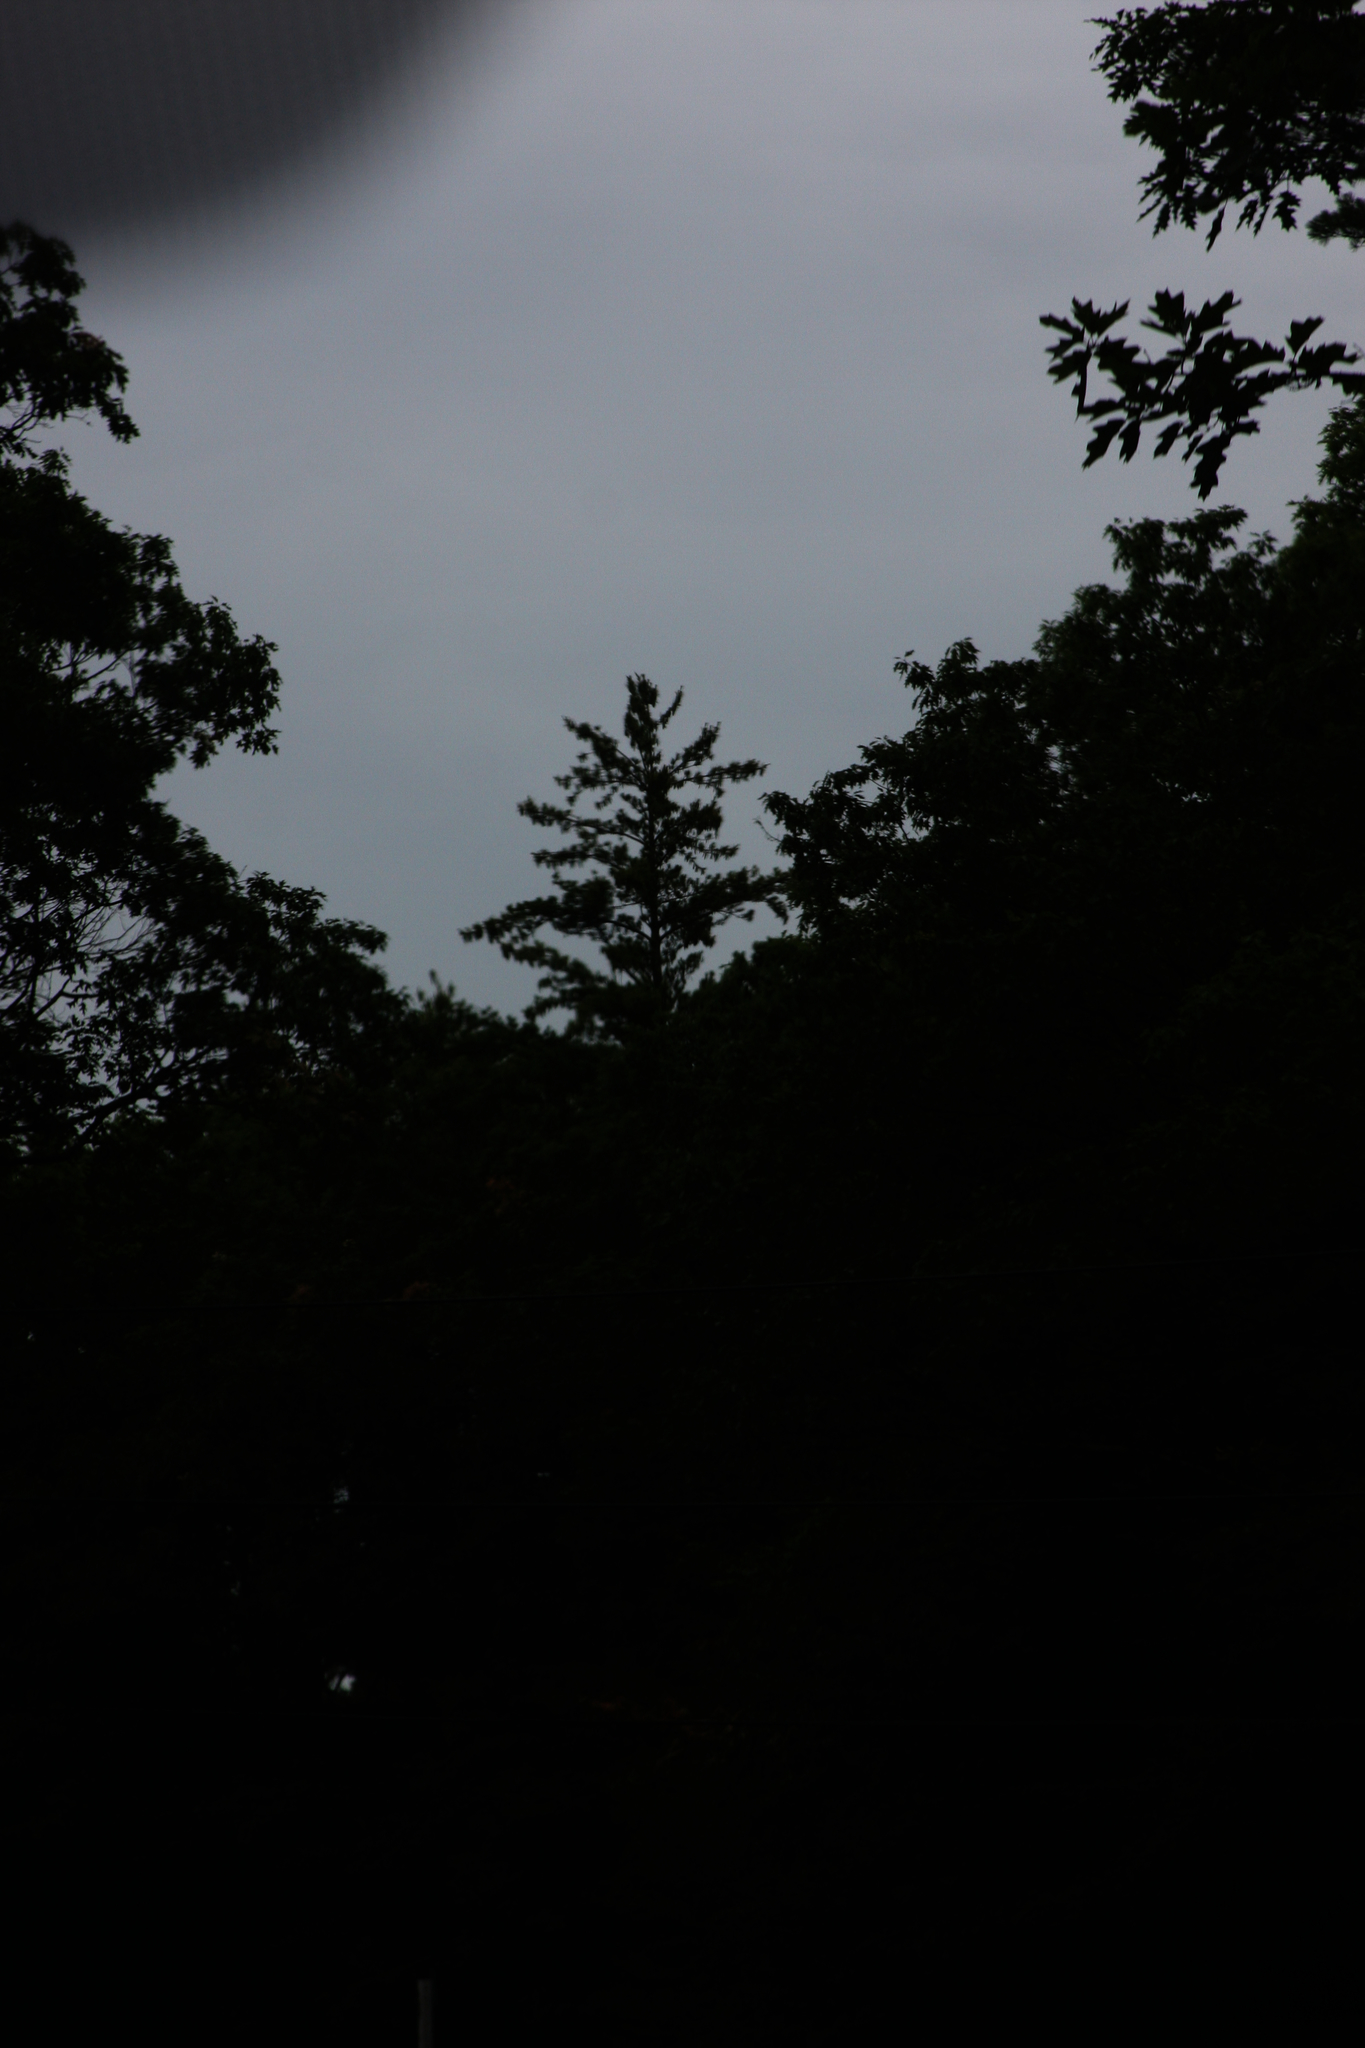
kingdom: Plantae
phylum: Tracheophyta
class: Pinopsida
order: Pinales
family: Pinaceae
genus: Pinus
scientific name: Pinus strobus
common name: Weymouth pine
